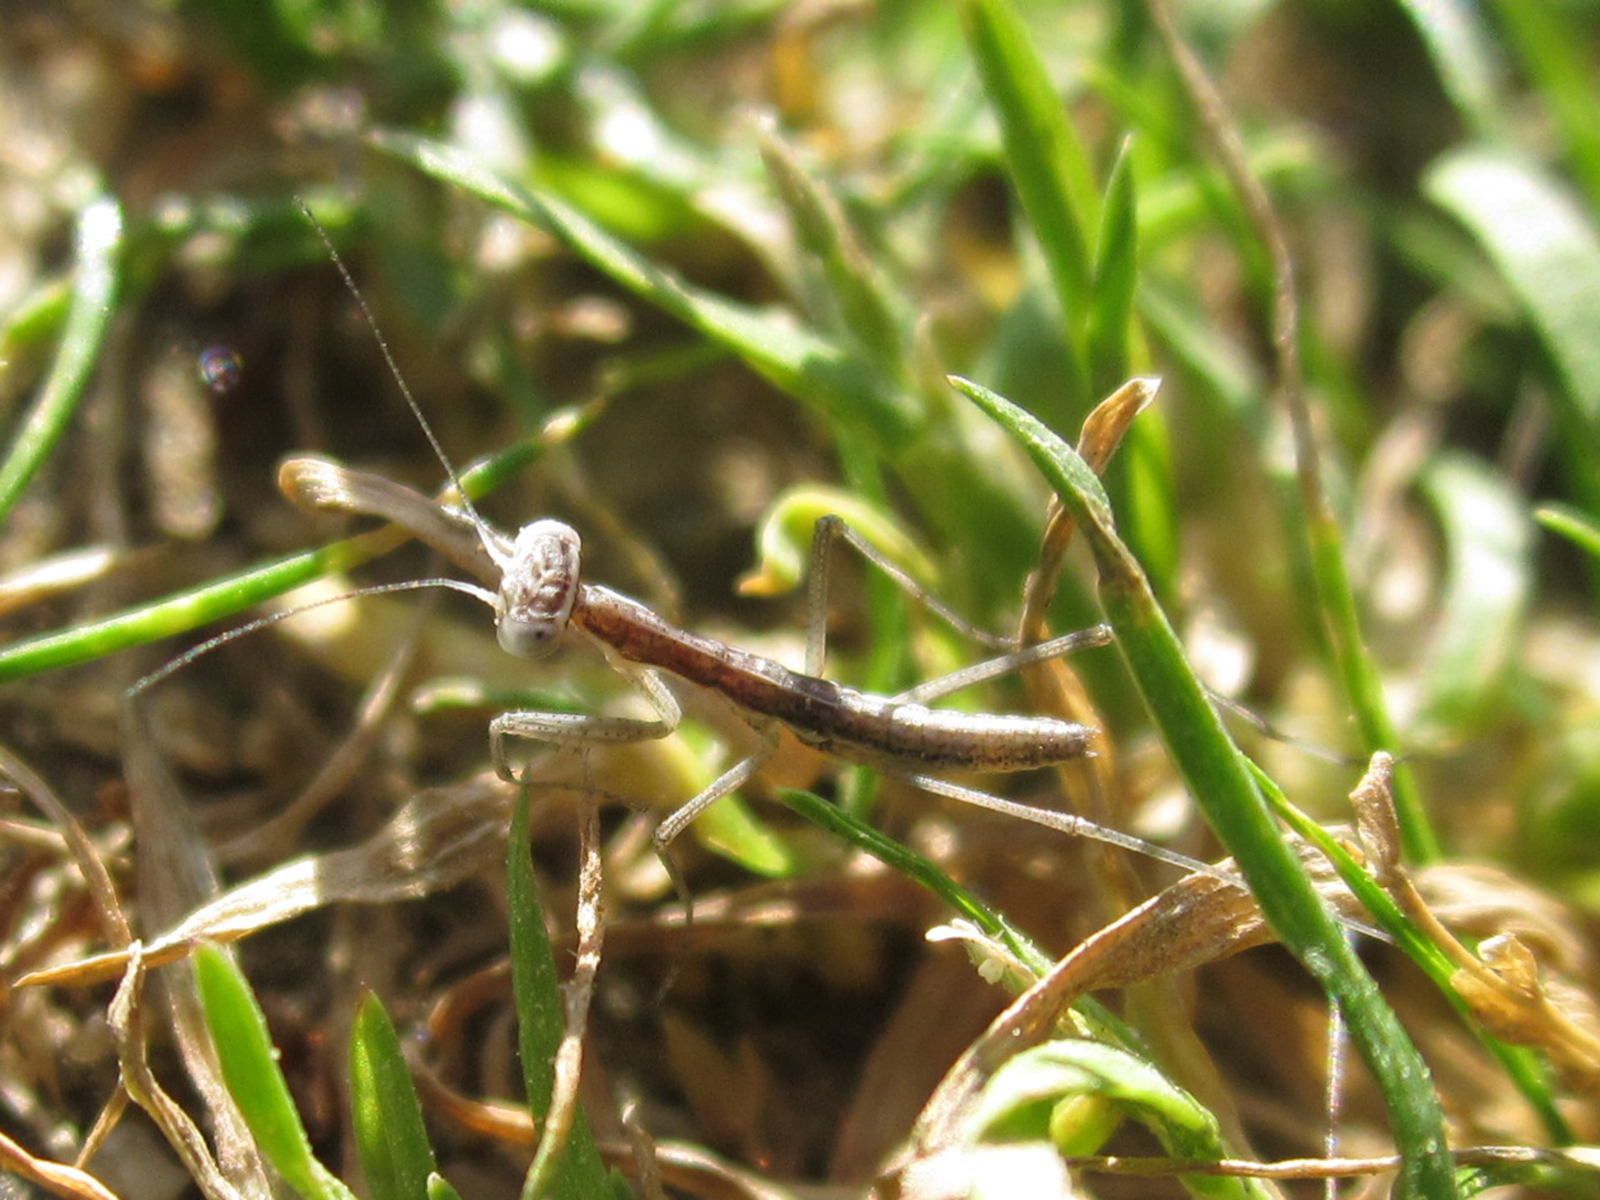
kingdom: Animalia
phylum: Arthropoda
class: Insecta
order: Mantodea
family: Coptopterygidae
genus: Coptopteryx
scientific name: Coptopteryx gayi
